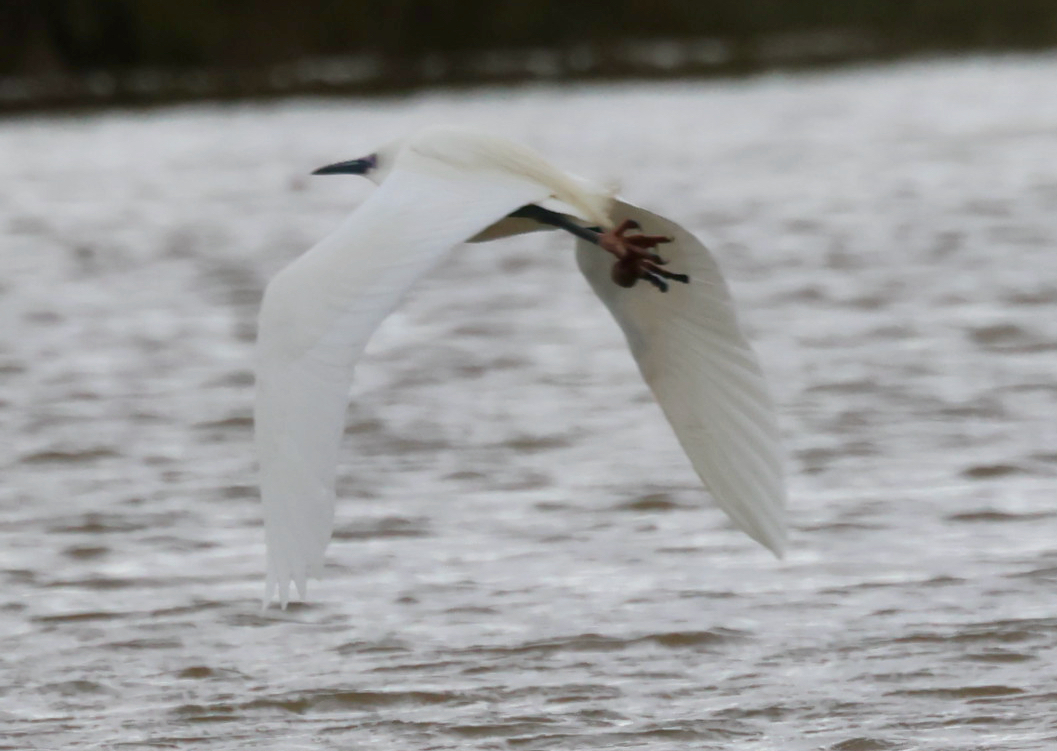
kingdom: Animalia
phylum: Chordata
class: Aves
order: Pelecaniformes
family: Ardeidae
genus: Egretta
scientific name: Egretta garzetta
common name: Little egret
